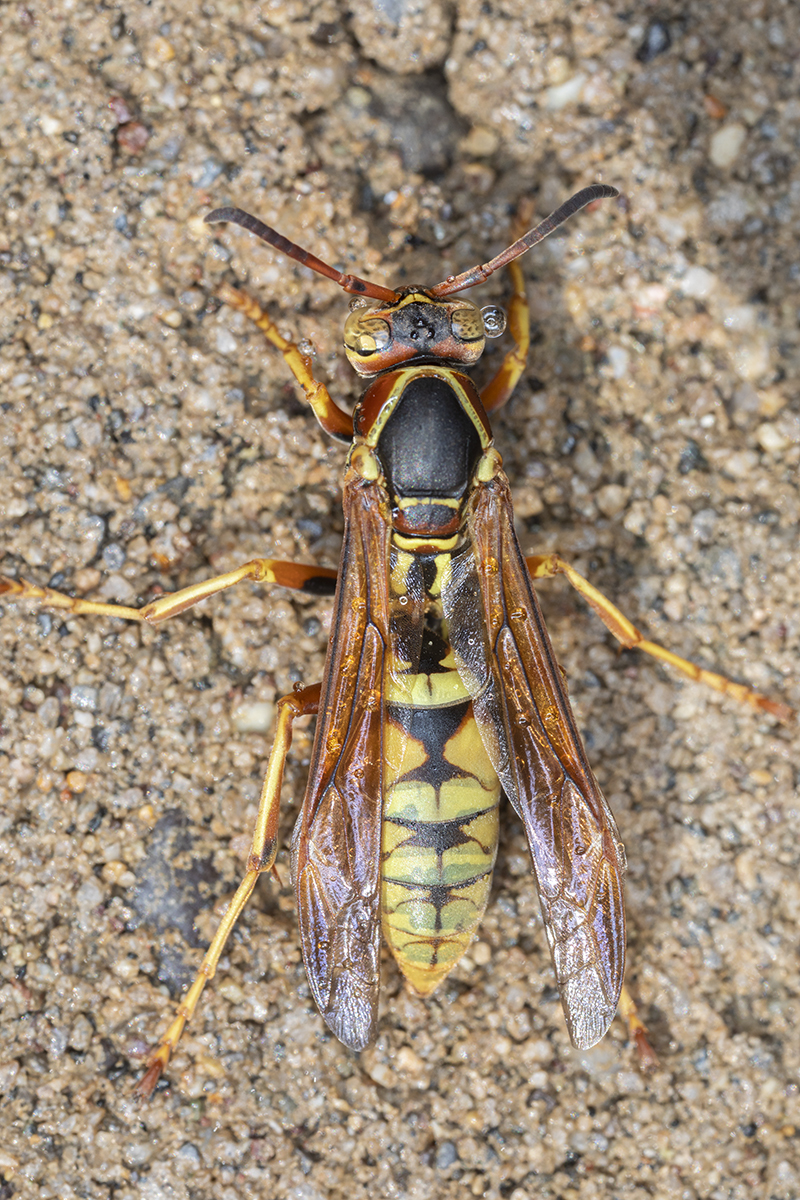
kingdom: Animalia
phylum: Arthropoda
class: Insecta
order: Hymenoptera
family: Eumenidae
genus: Polistes
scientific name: Polistes aurifer
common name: Paper wasp
